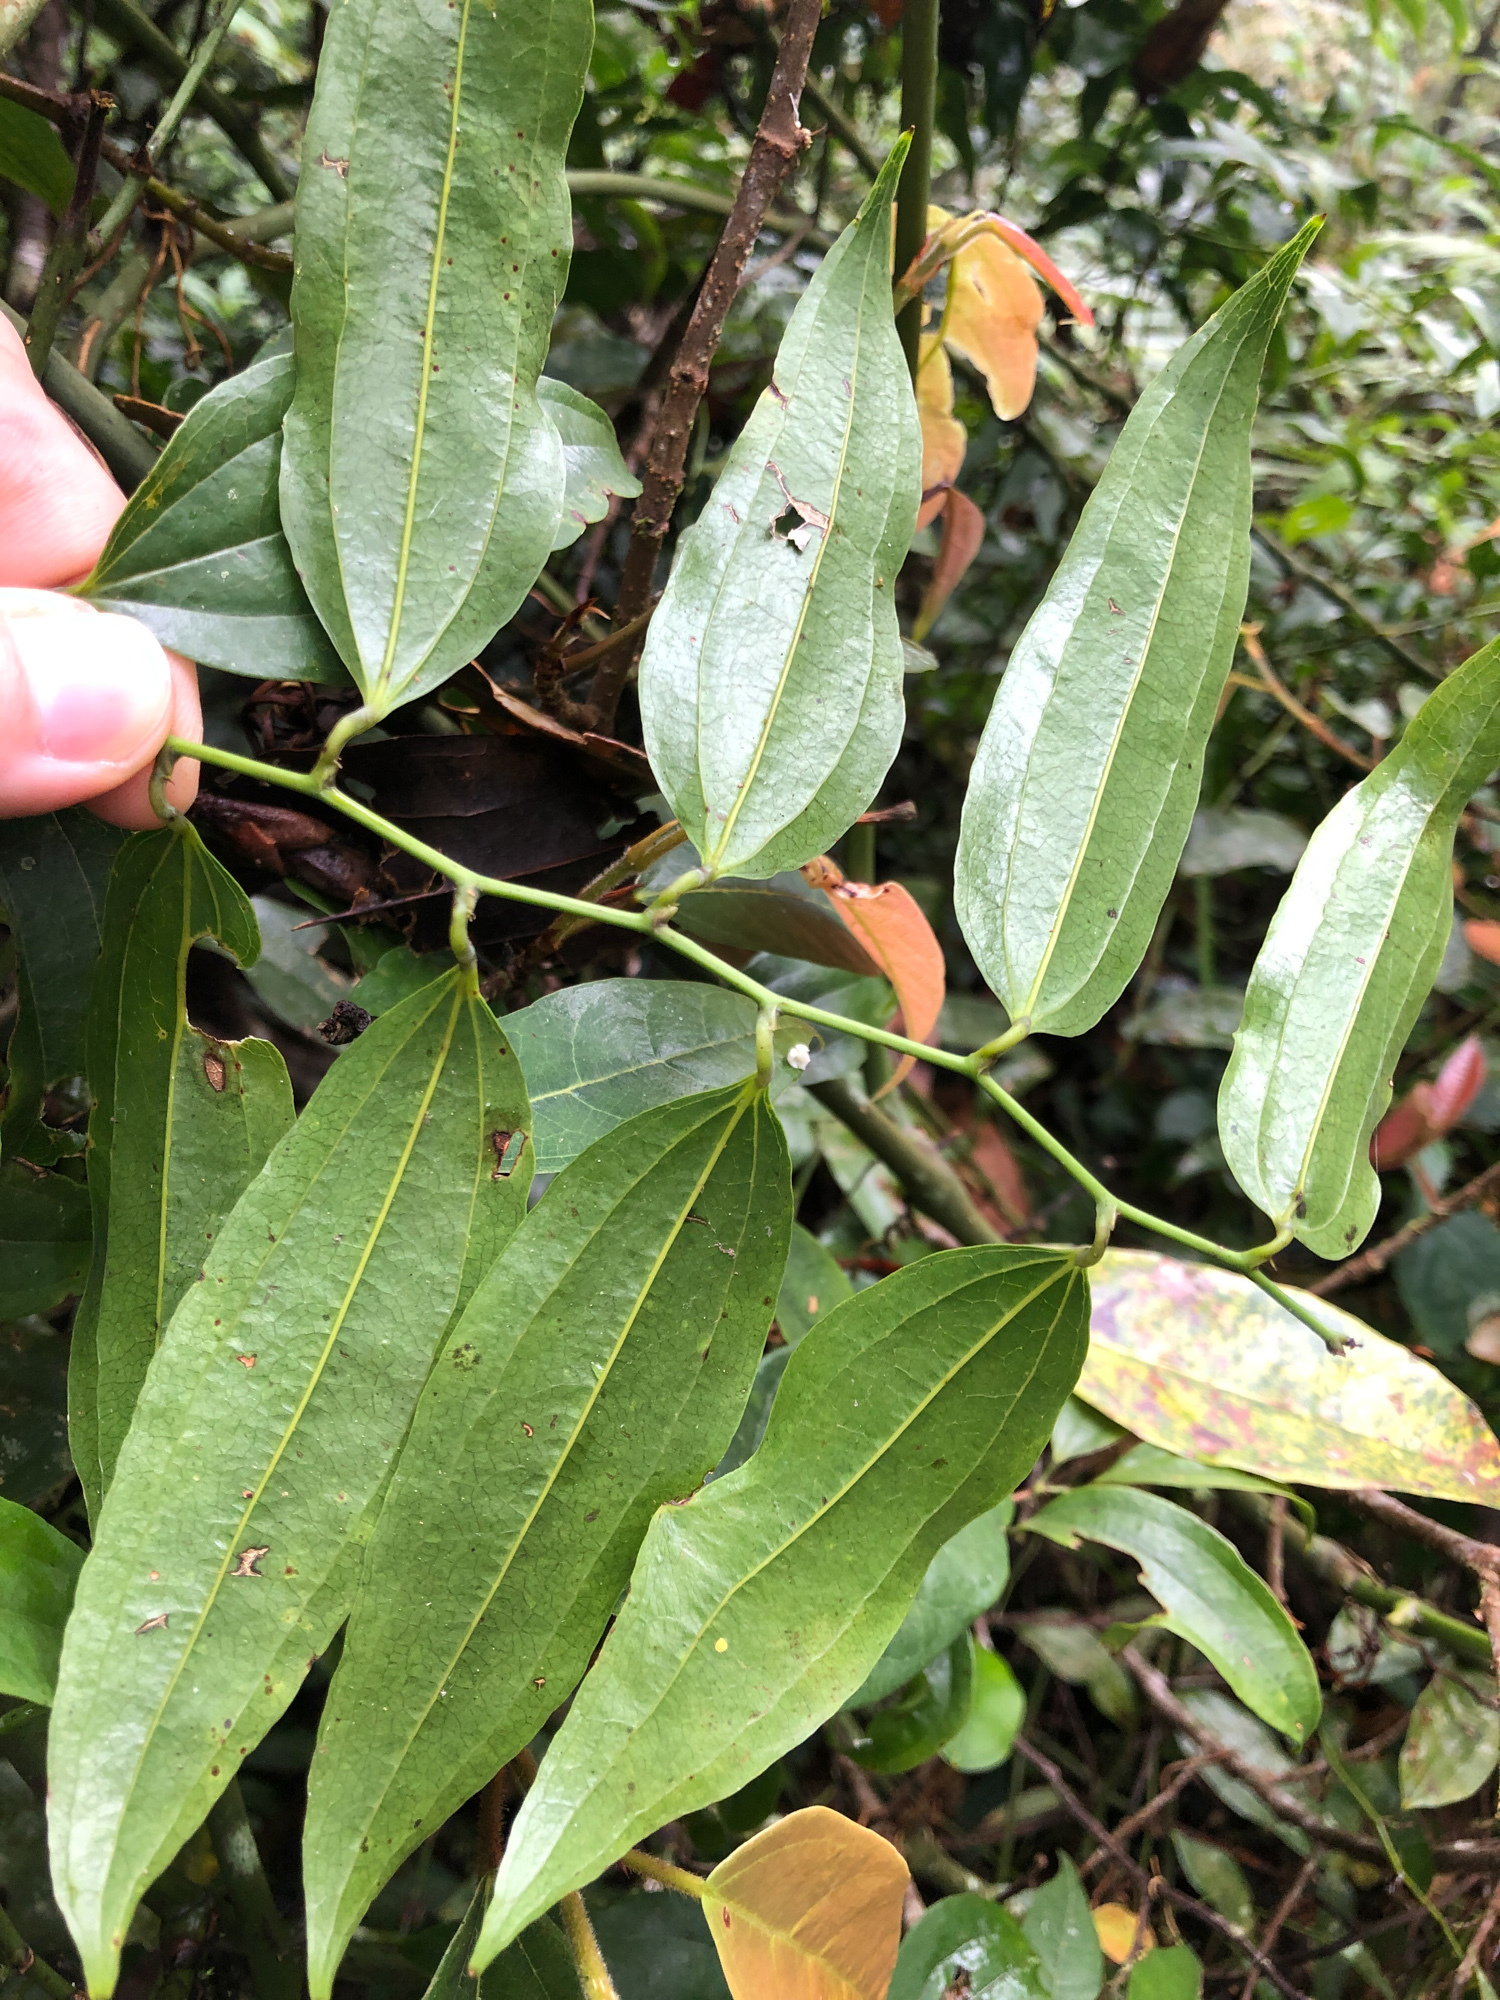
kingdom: Plantae
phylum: Tracheophyta
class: Liliopsida
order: Liliales
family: Smilacaceae
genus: Smilax
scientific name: Smilax lanceifolia
